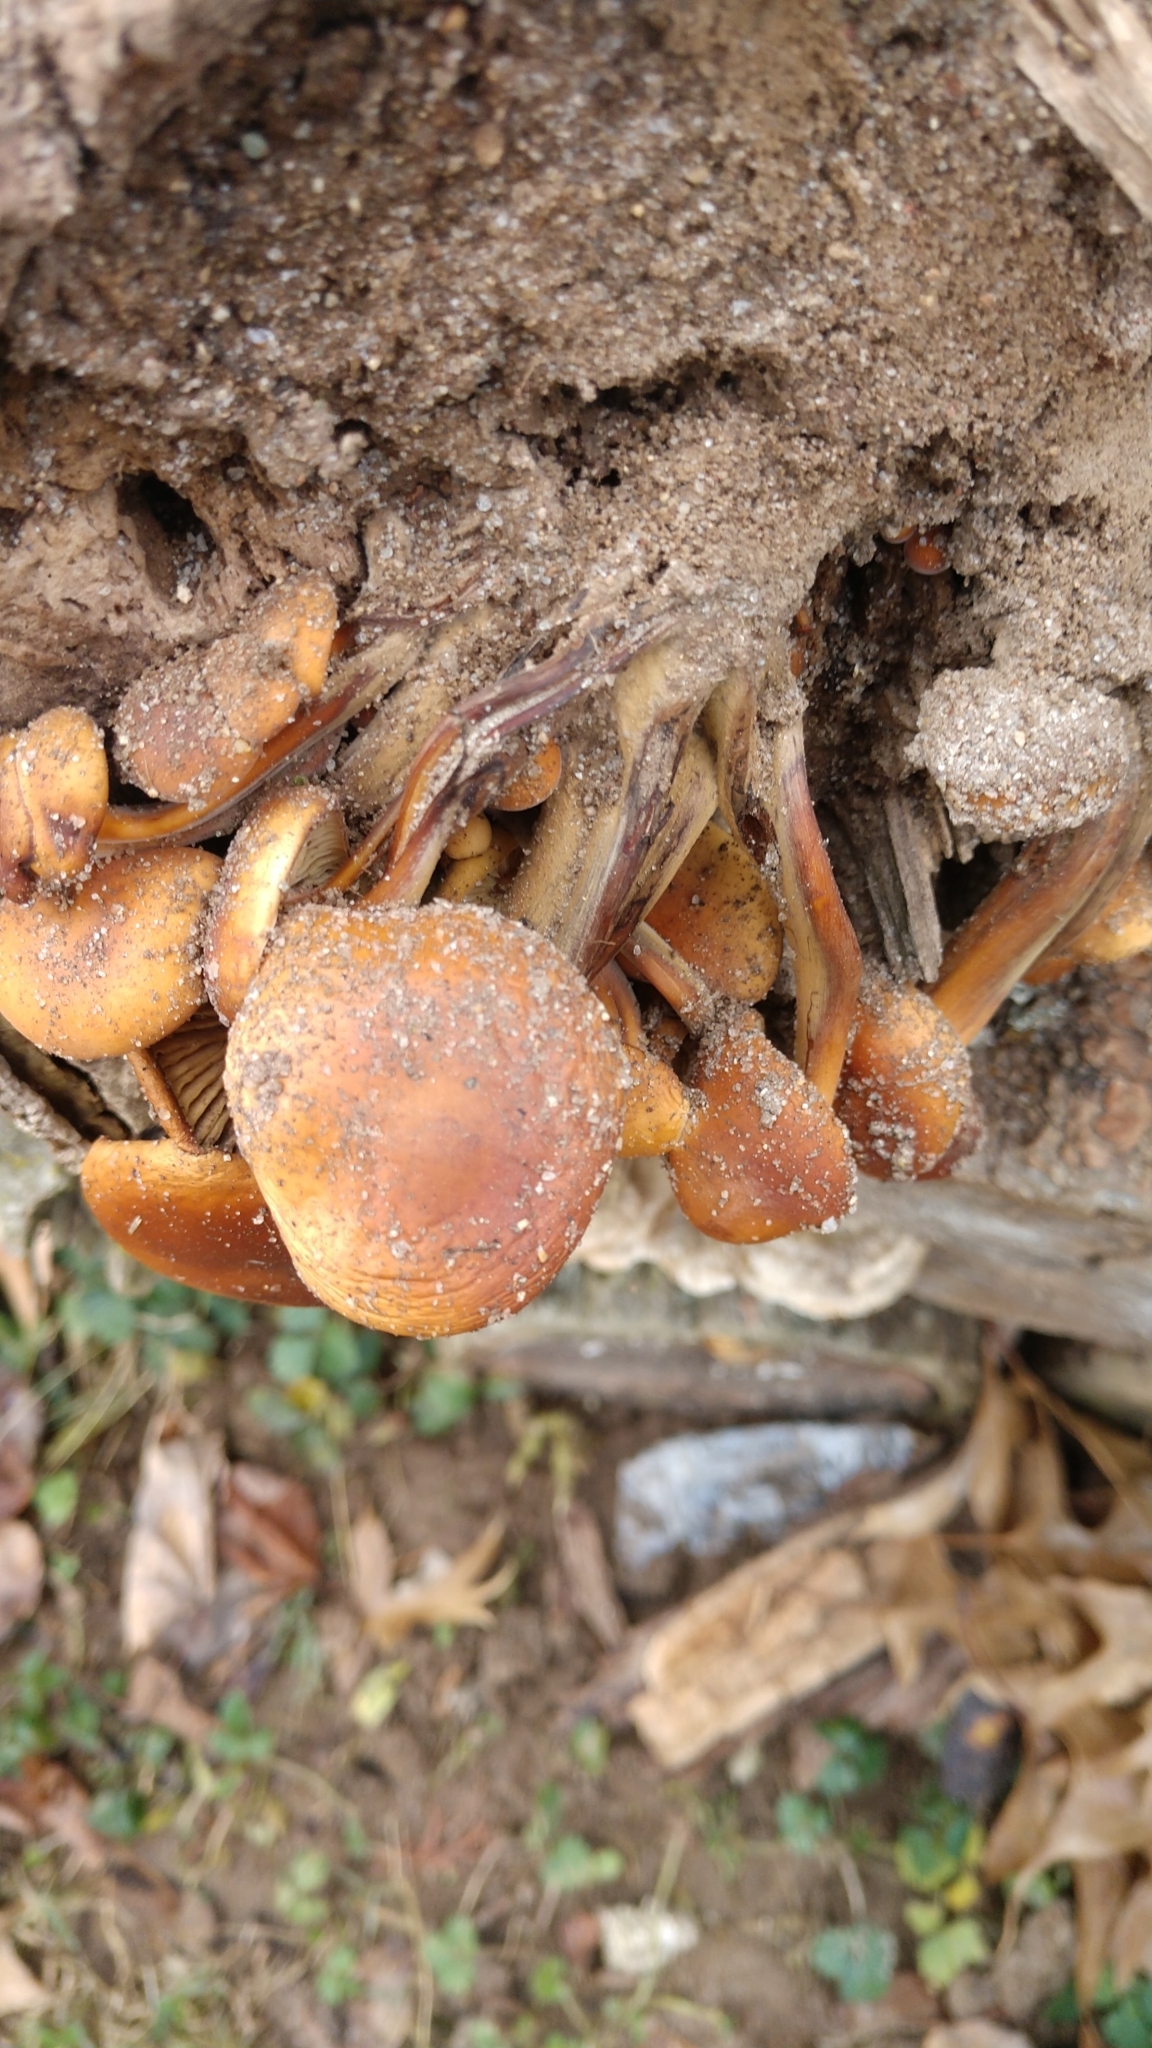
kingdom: Fungi
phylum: Basidiomycota
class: Agaricomycetes
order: Agaricales
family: Physalacriaceae
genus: Flammulina
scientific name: Flammulina velutipes
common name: Velvet shank
